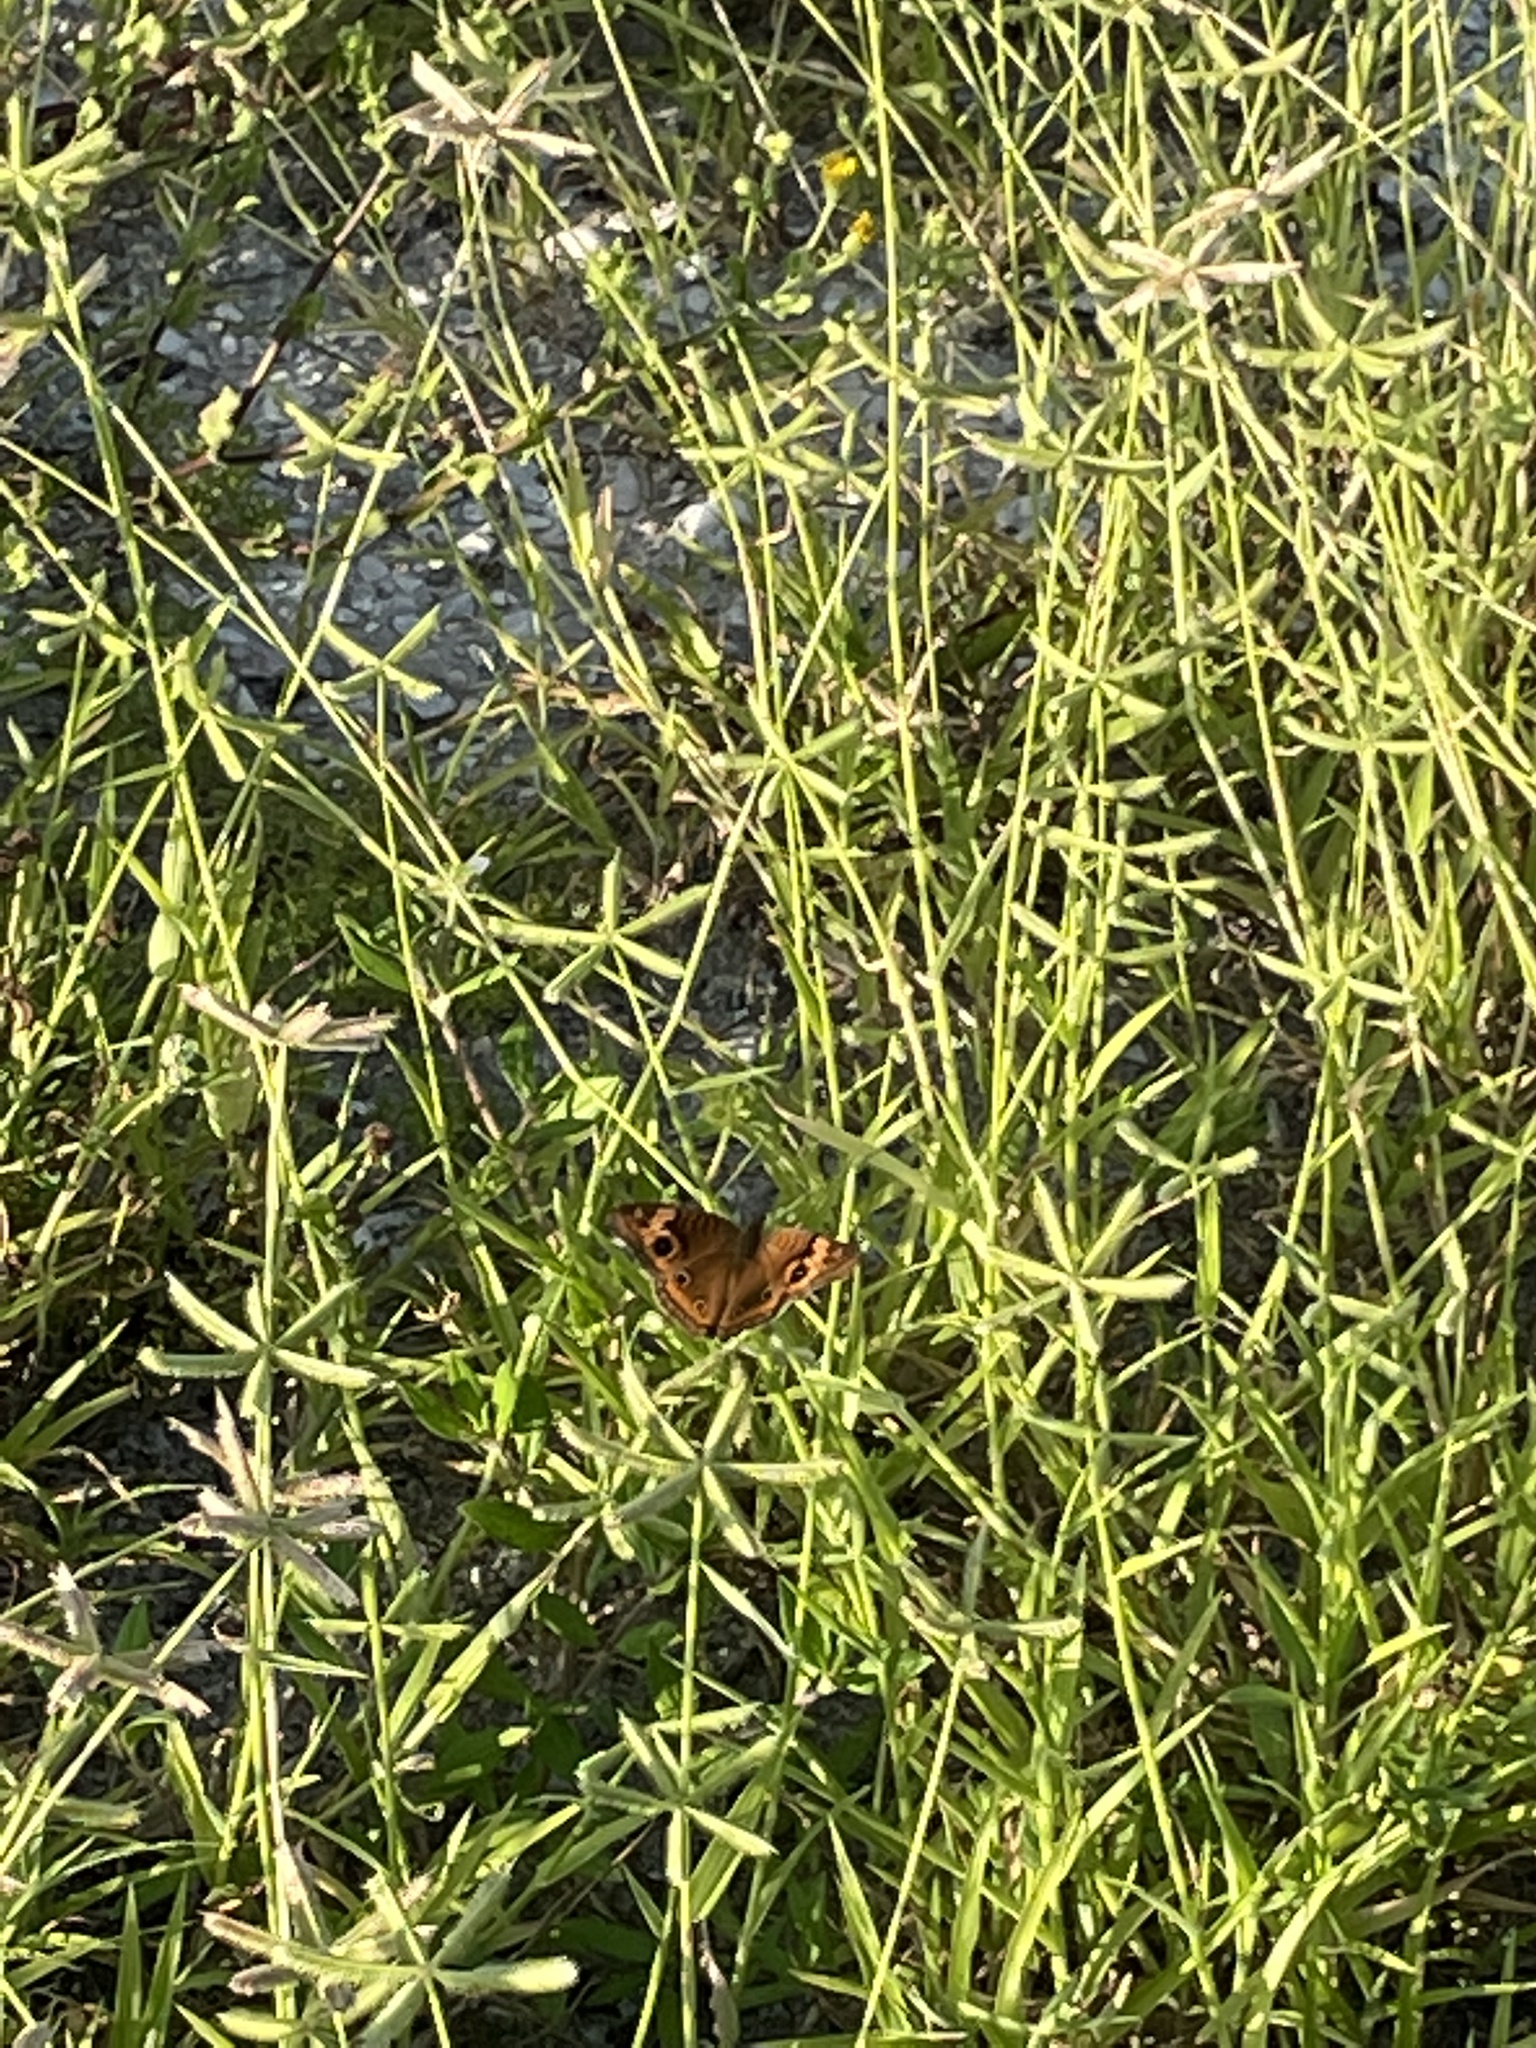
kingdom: Animalia
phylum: Arthropoda
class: Insecta
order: Lepidoptera
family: Nymphalidae
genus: Junonia
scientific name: Junonia neildi
